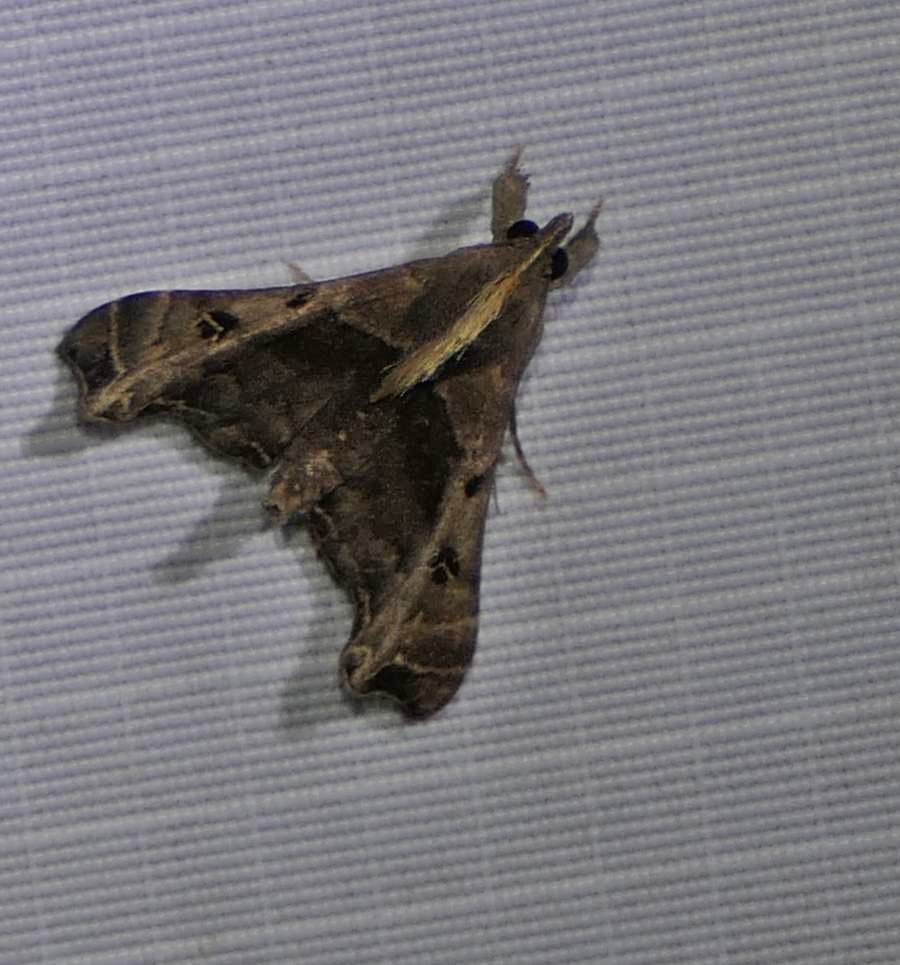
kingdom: Animalia
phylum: Arthropoda
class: Insecta
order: Lepidoptera
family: Erebidae
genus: Palthis
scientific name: Palthis asopialis
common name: Faint-spotted palthis moth
